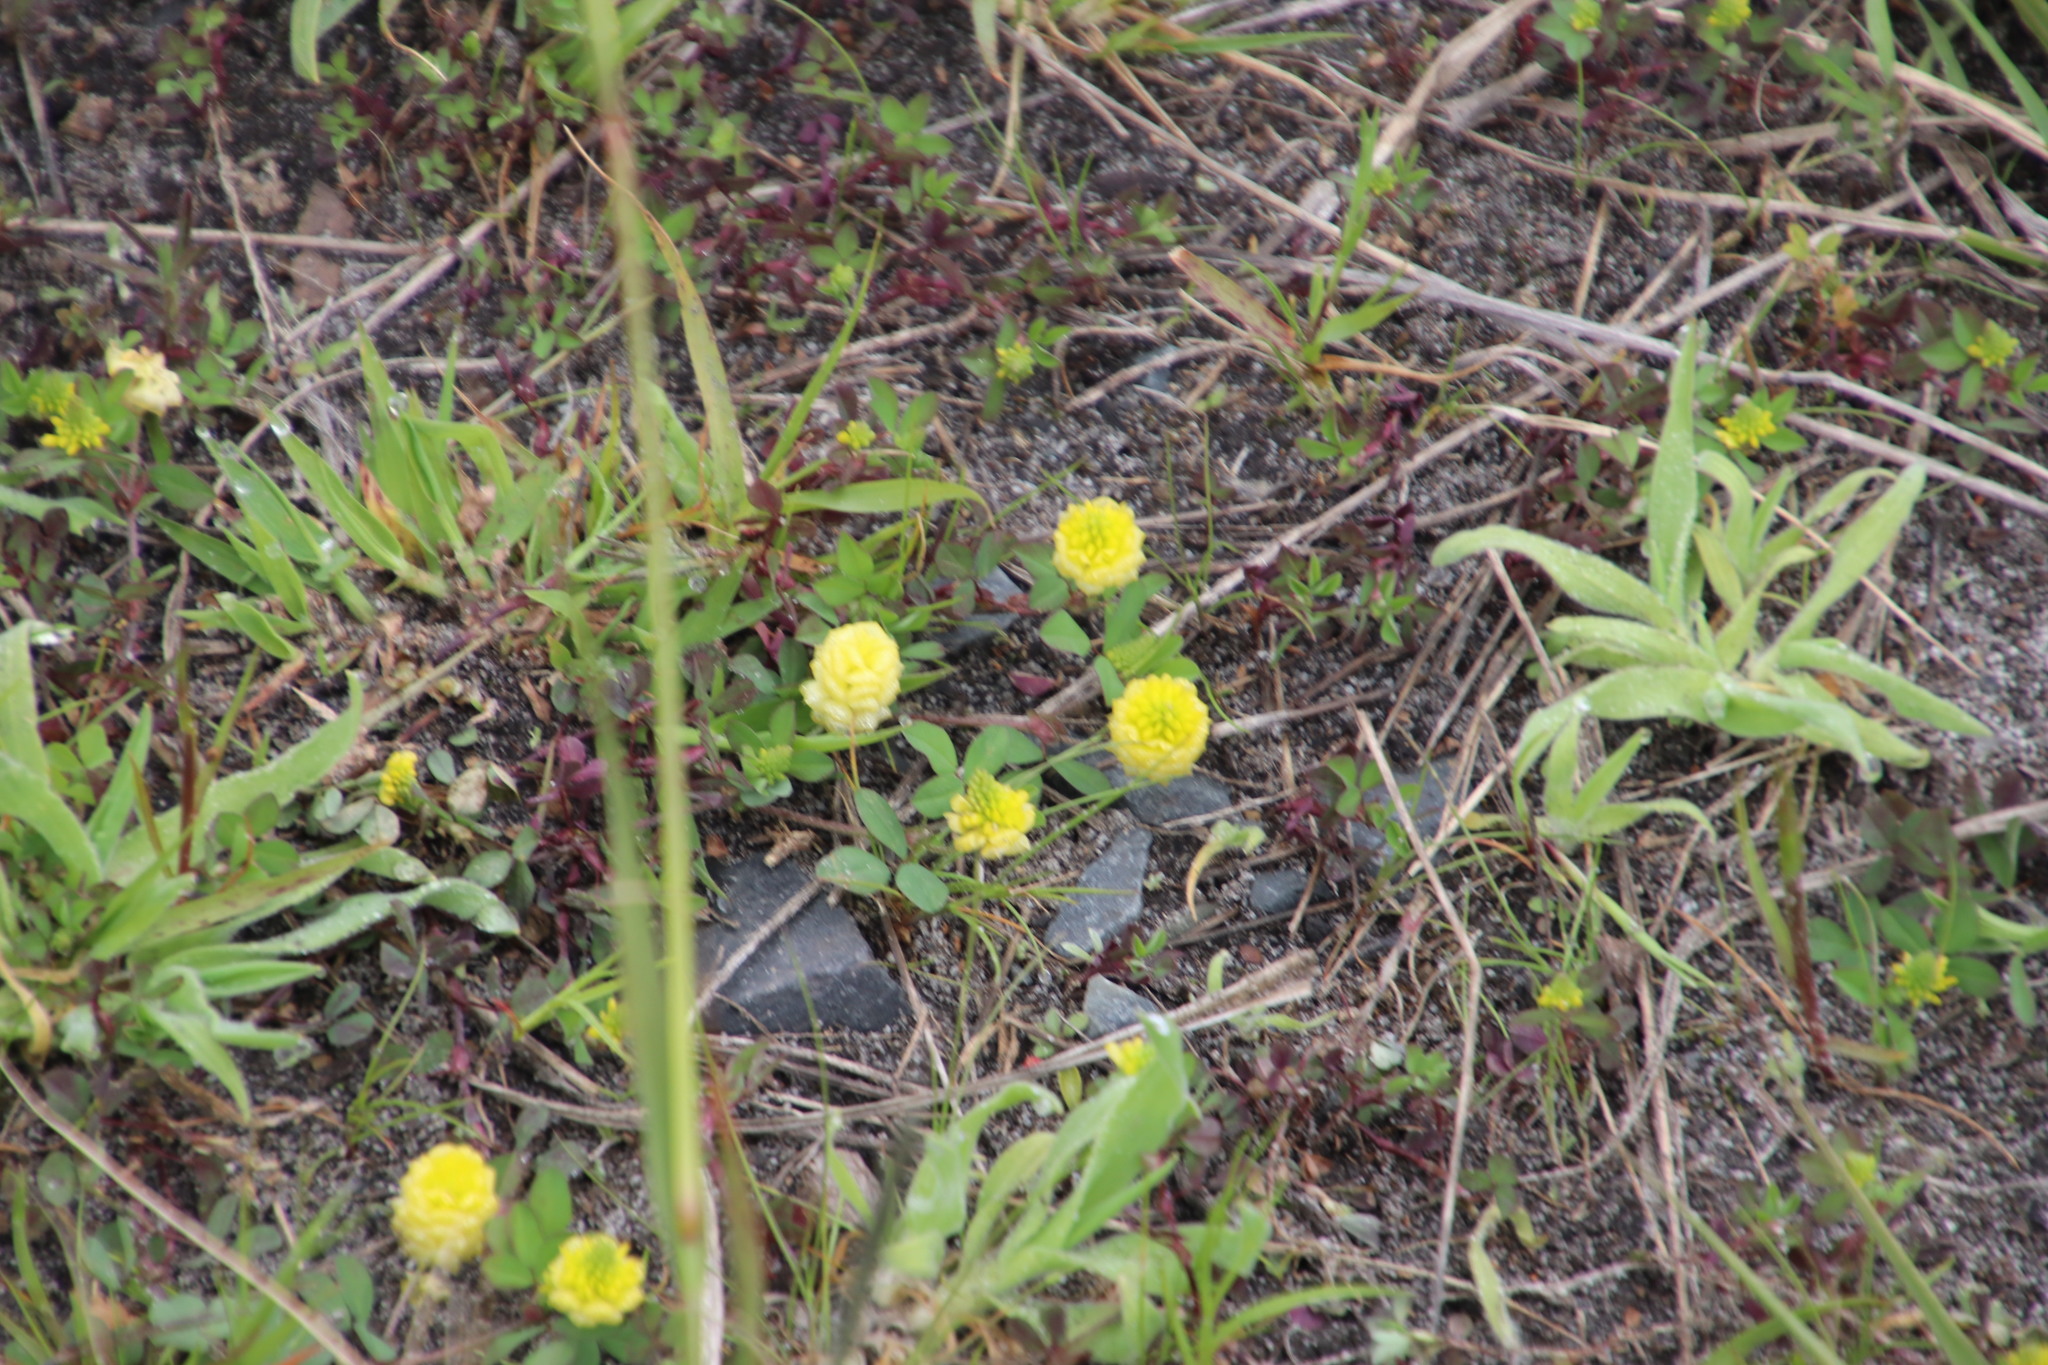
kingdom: Plantae
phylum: Tracheophyta
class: Magnoliopsida
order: Fabales
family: Fabaceae
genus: Trifolium
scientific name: Trifolium campestre
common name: Field clover
